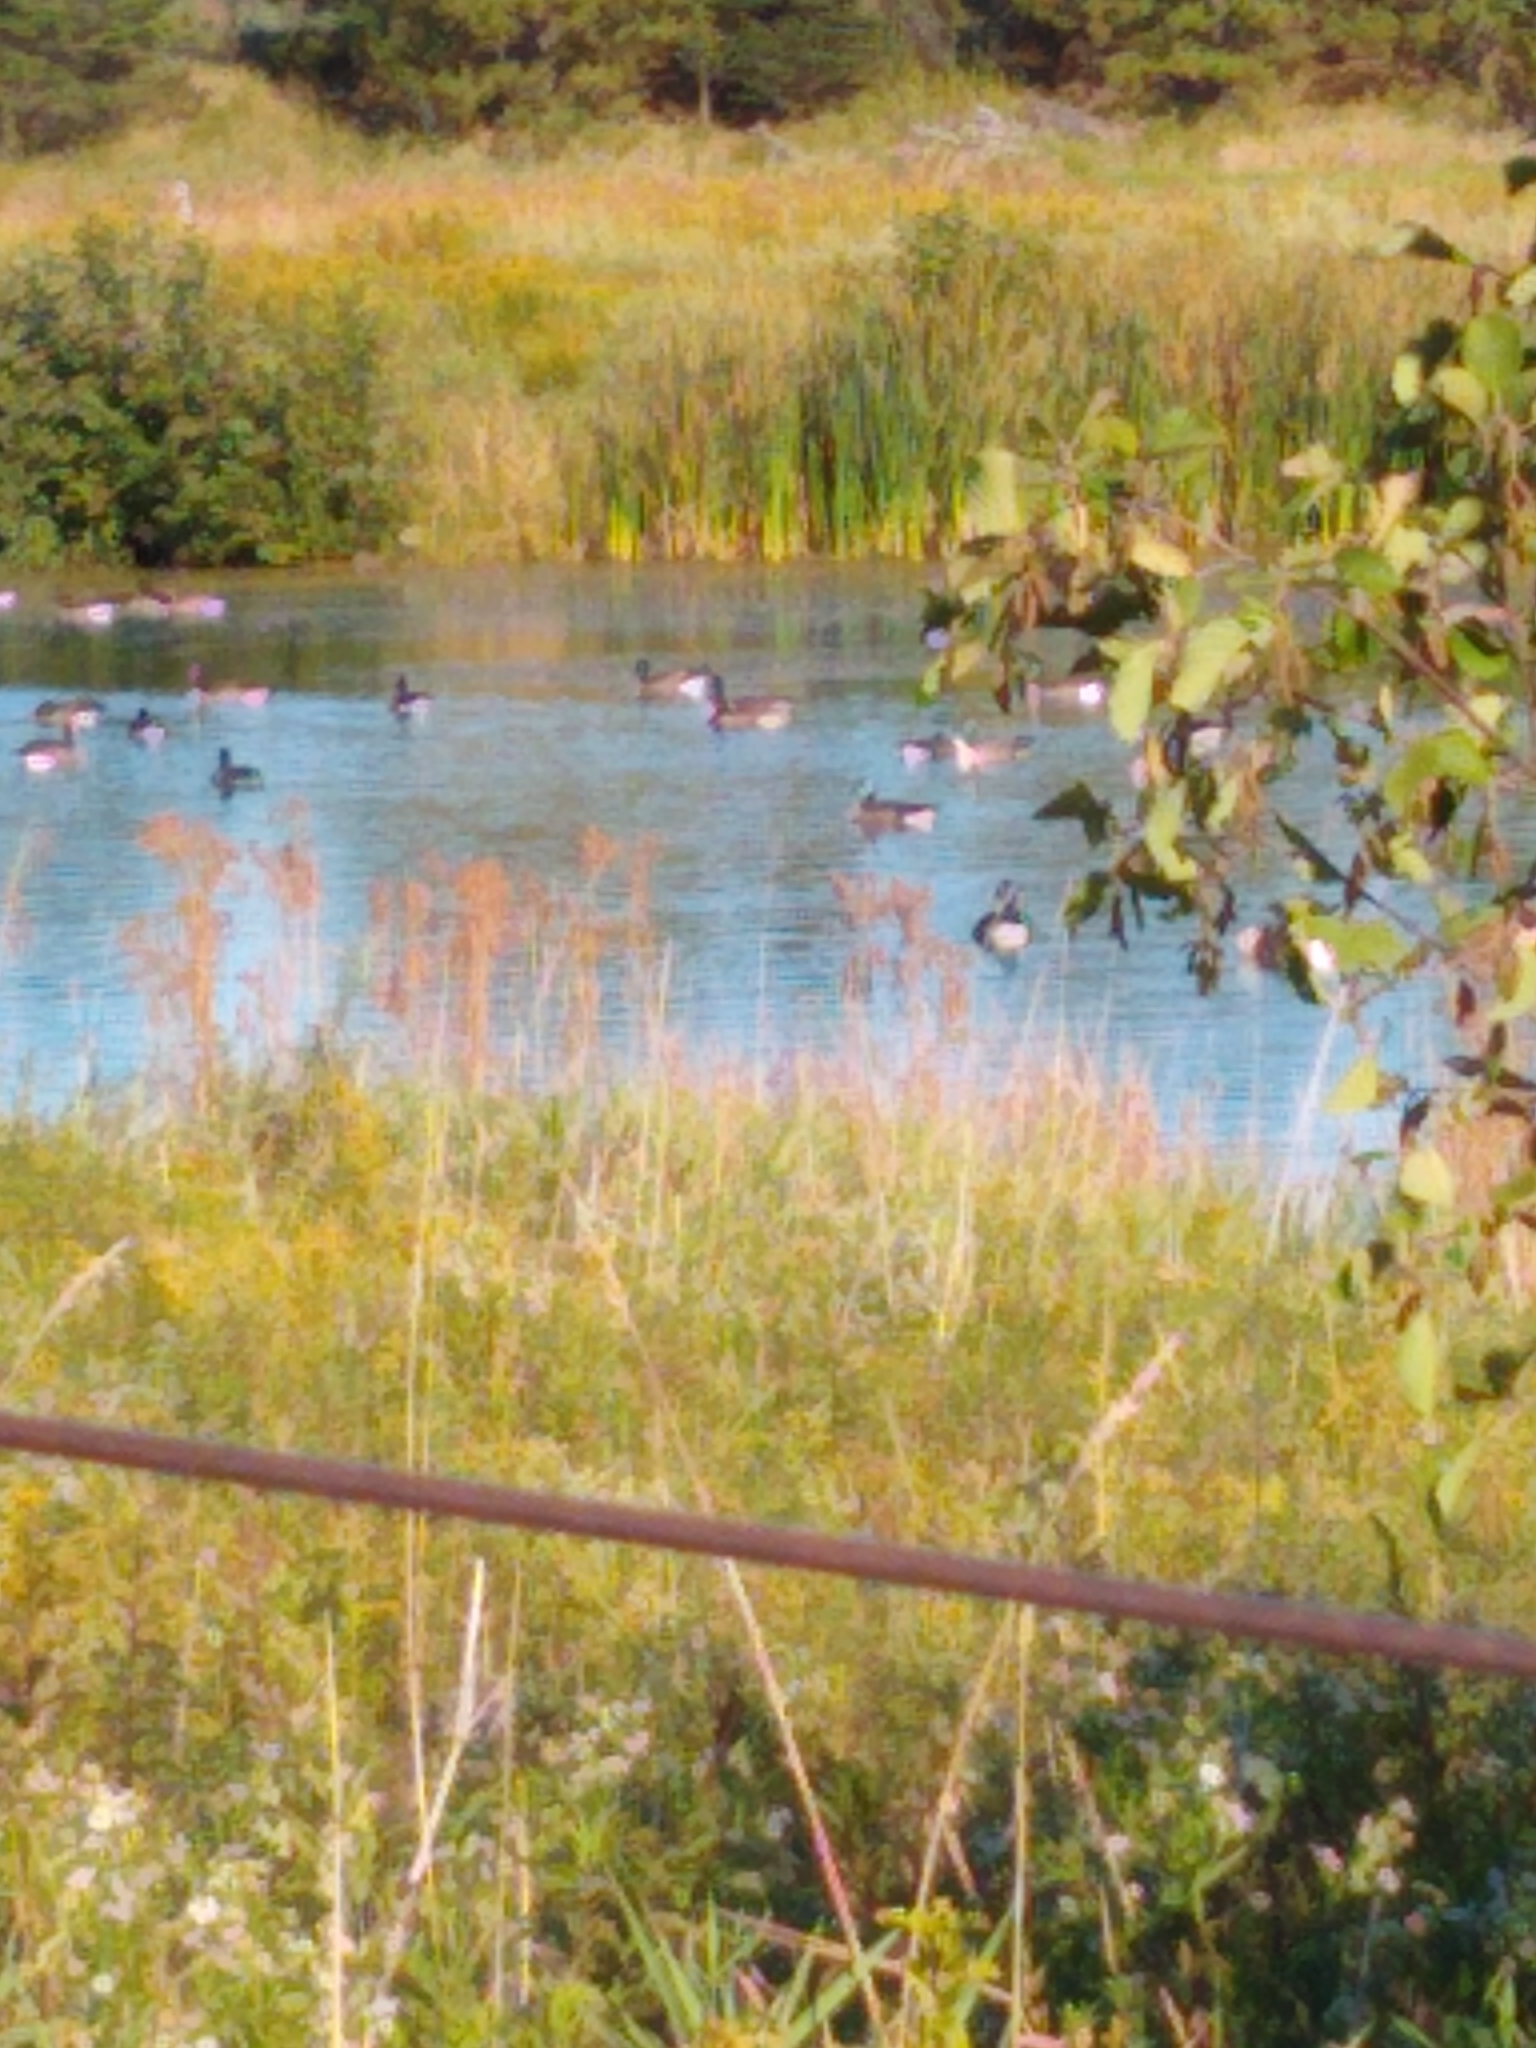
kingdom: Animalia
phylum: Chordata
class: Aves
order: Anseriformes
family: Anatidae
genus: Branta
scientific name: Branta canadensis
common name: Canada goose
